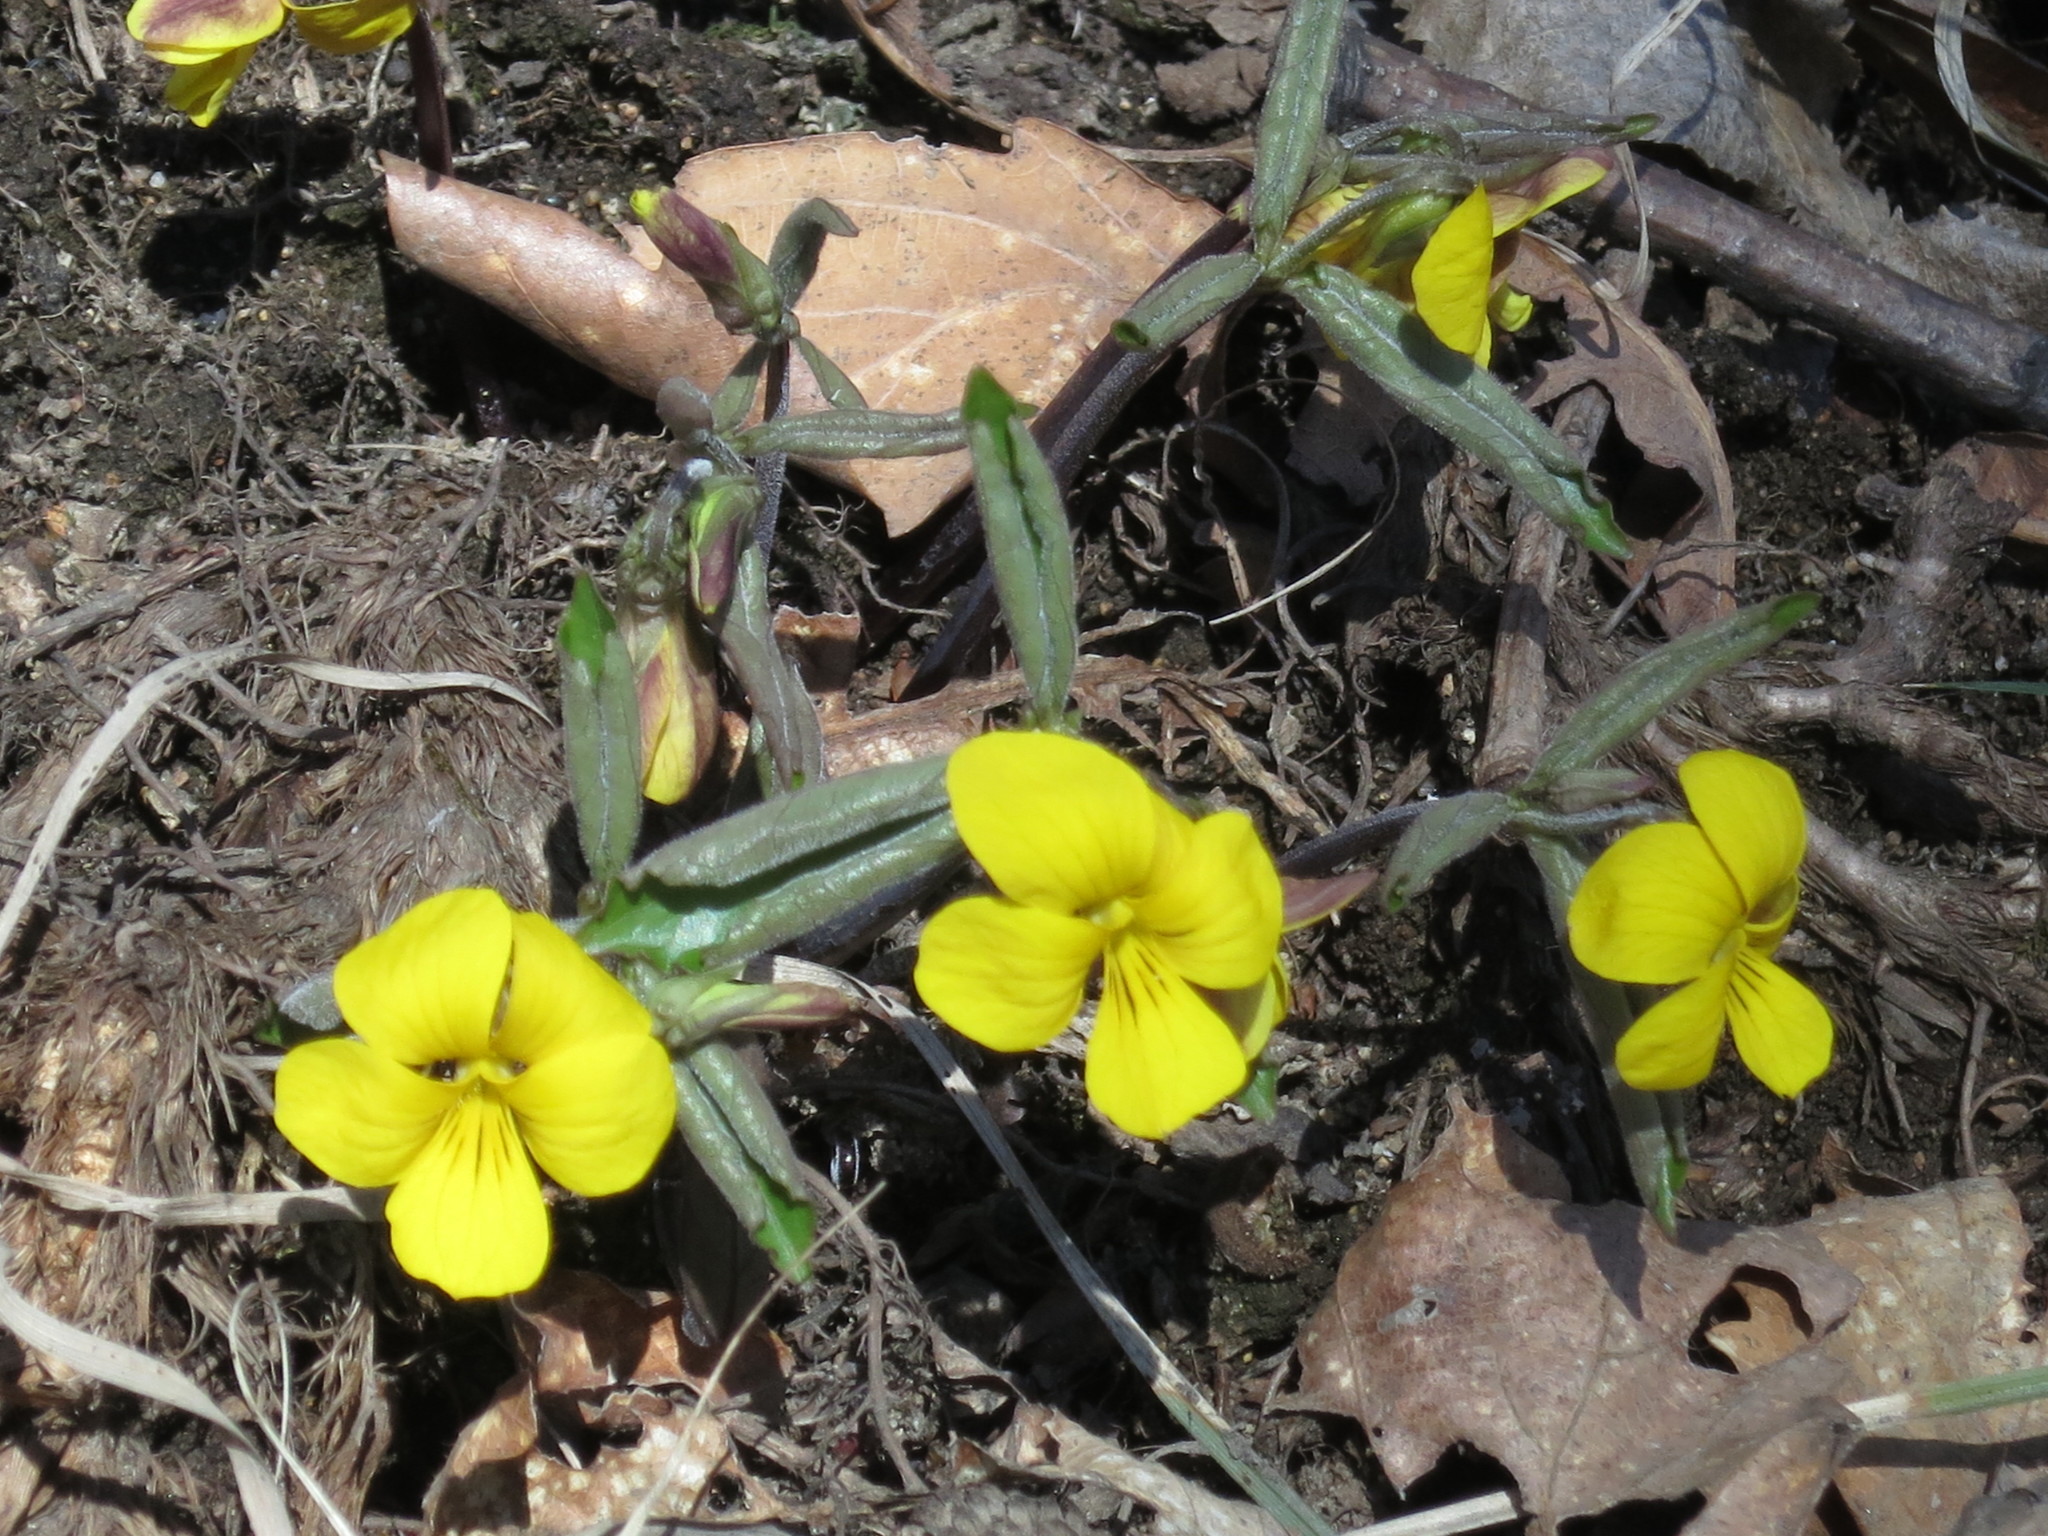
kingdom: Plantae
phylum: Tracheophyta
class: Magnoliopsida
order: Malpighiales
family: Violaceae
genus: Viola
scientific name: Viola orientalis
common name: Golden violet
